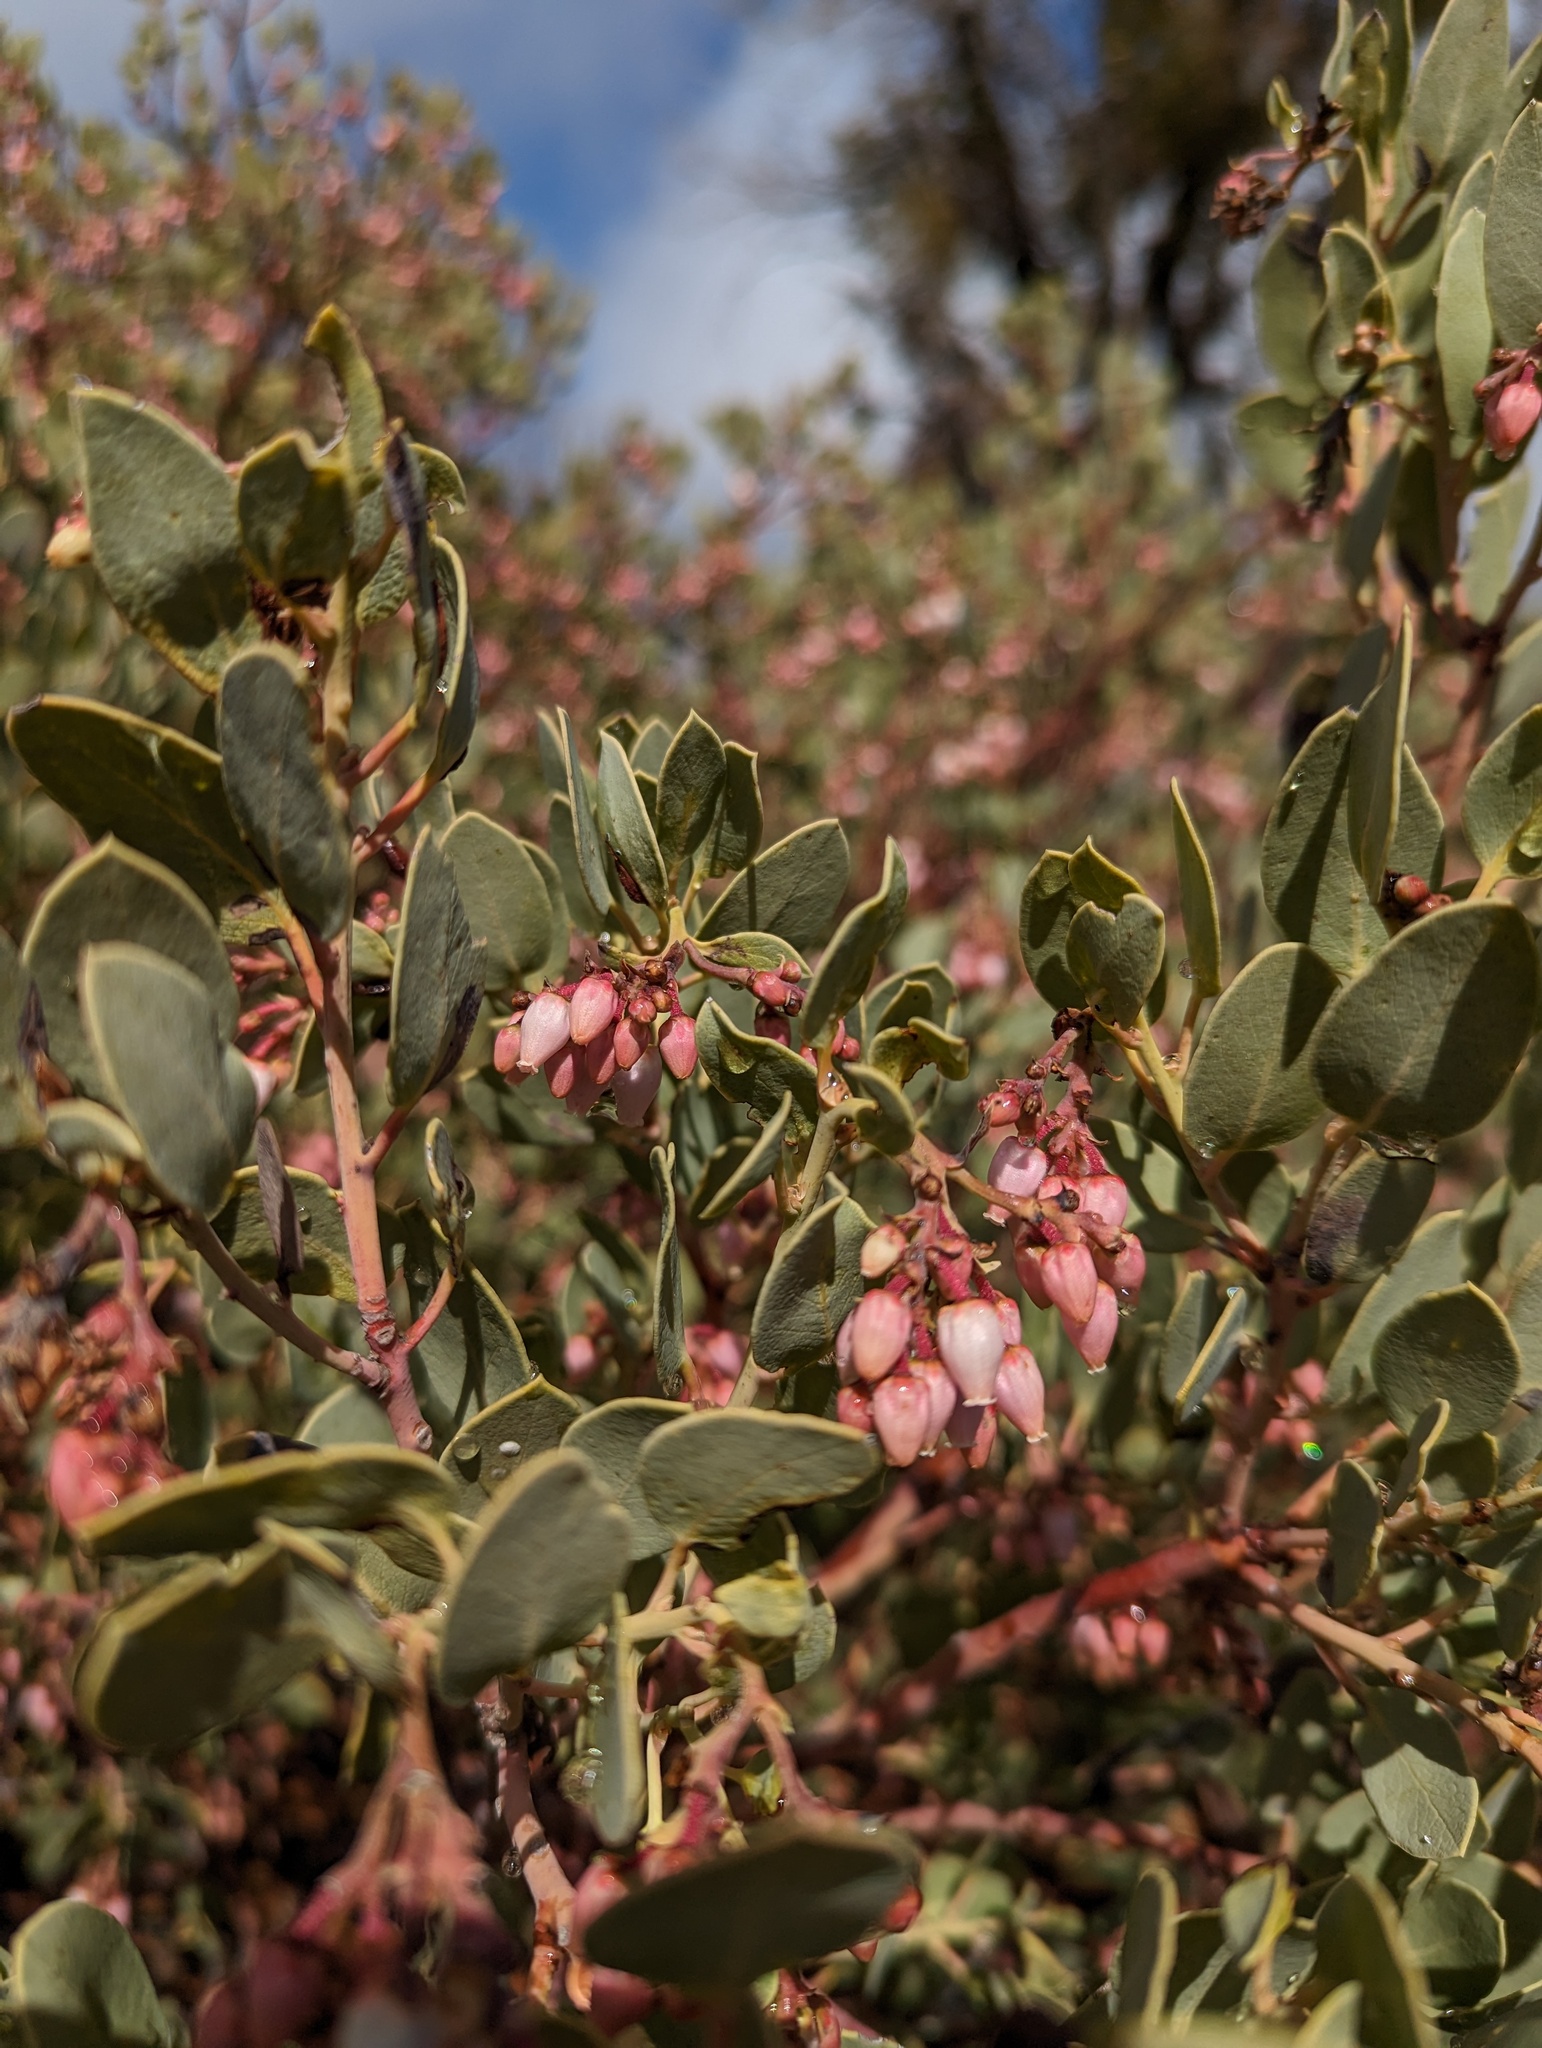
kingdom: Plantae
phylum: Tracheophyta
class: Magnoliopsida
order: Ericales
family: Ericaceae
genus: Arctostaphylos
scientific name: Arctostaphylos glauca
